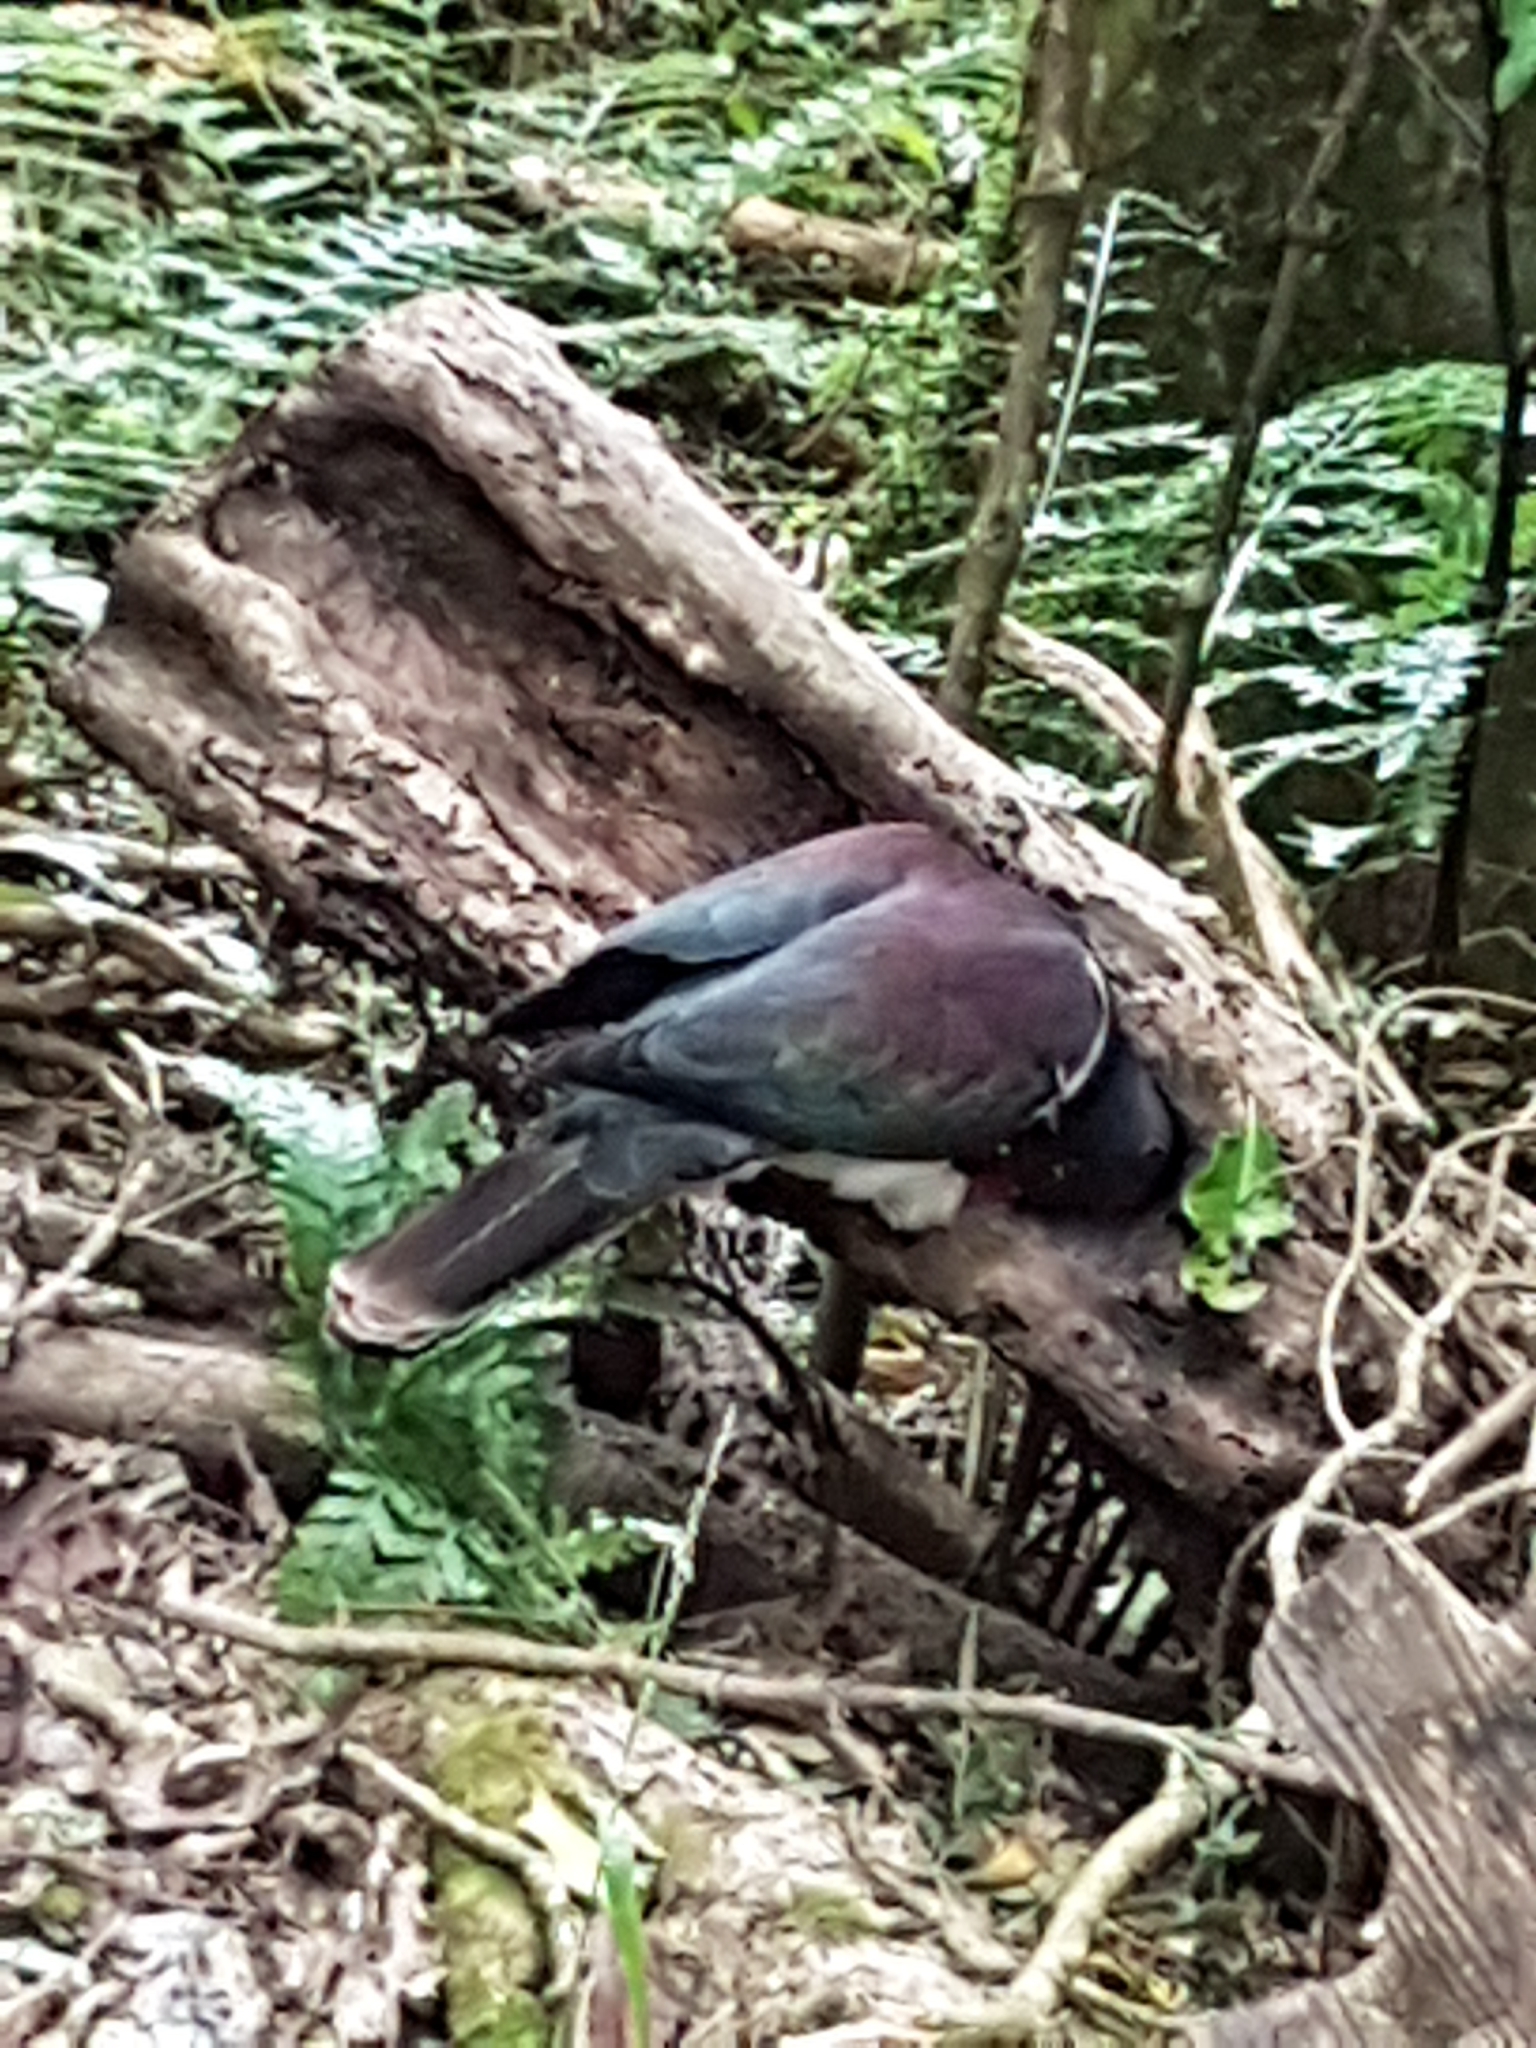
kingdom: Animalia
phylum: Chordata
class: Aves
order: Columbiformes
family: Columbidae
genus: Hemiphaga
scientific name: Hemiphaga novaeseelandiae
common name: New zealand pigeon
